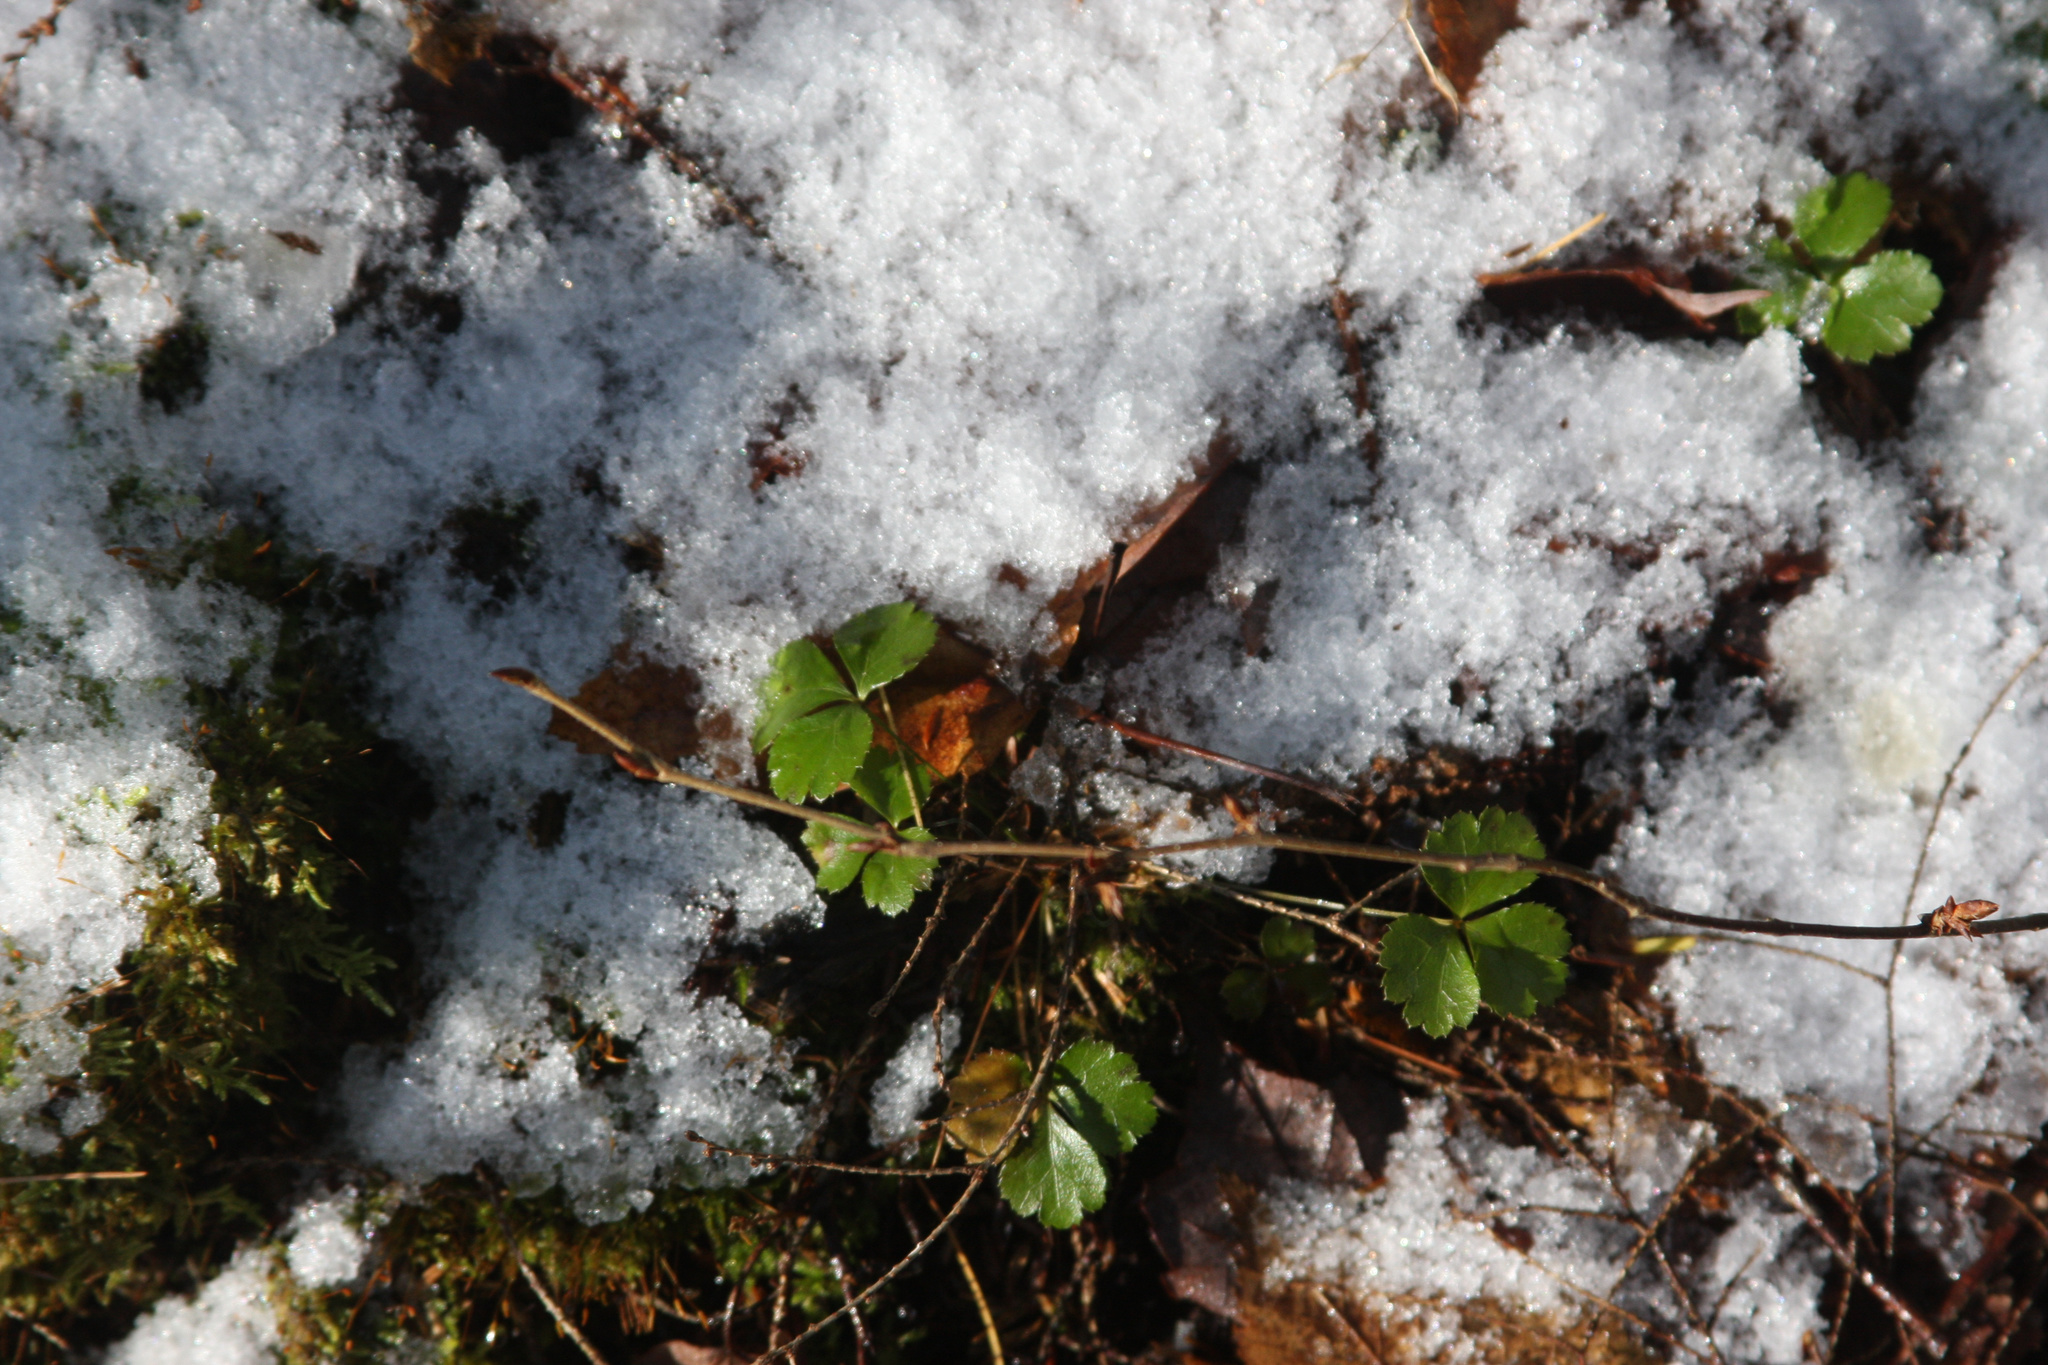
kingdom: Plantae
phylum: Tracheophyta
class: Magnoliopsida
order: Ranunculales
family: Ranunculaceae
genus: Coptis
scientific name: Coptis trifolia
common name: Canker-root
